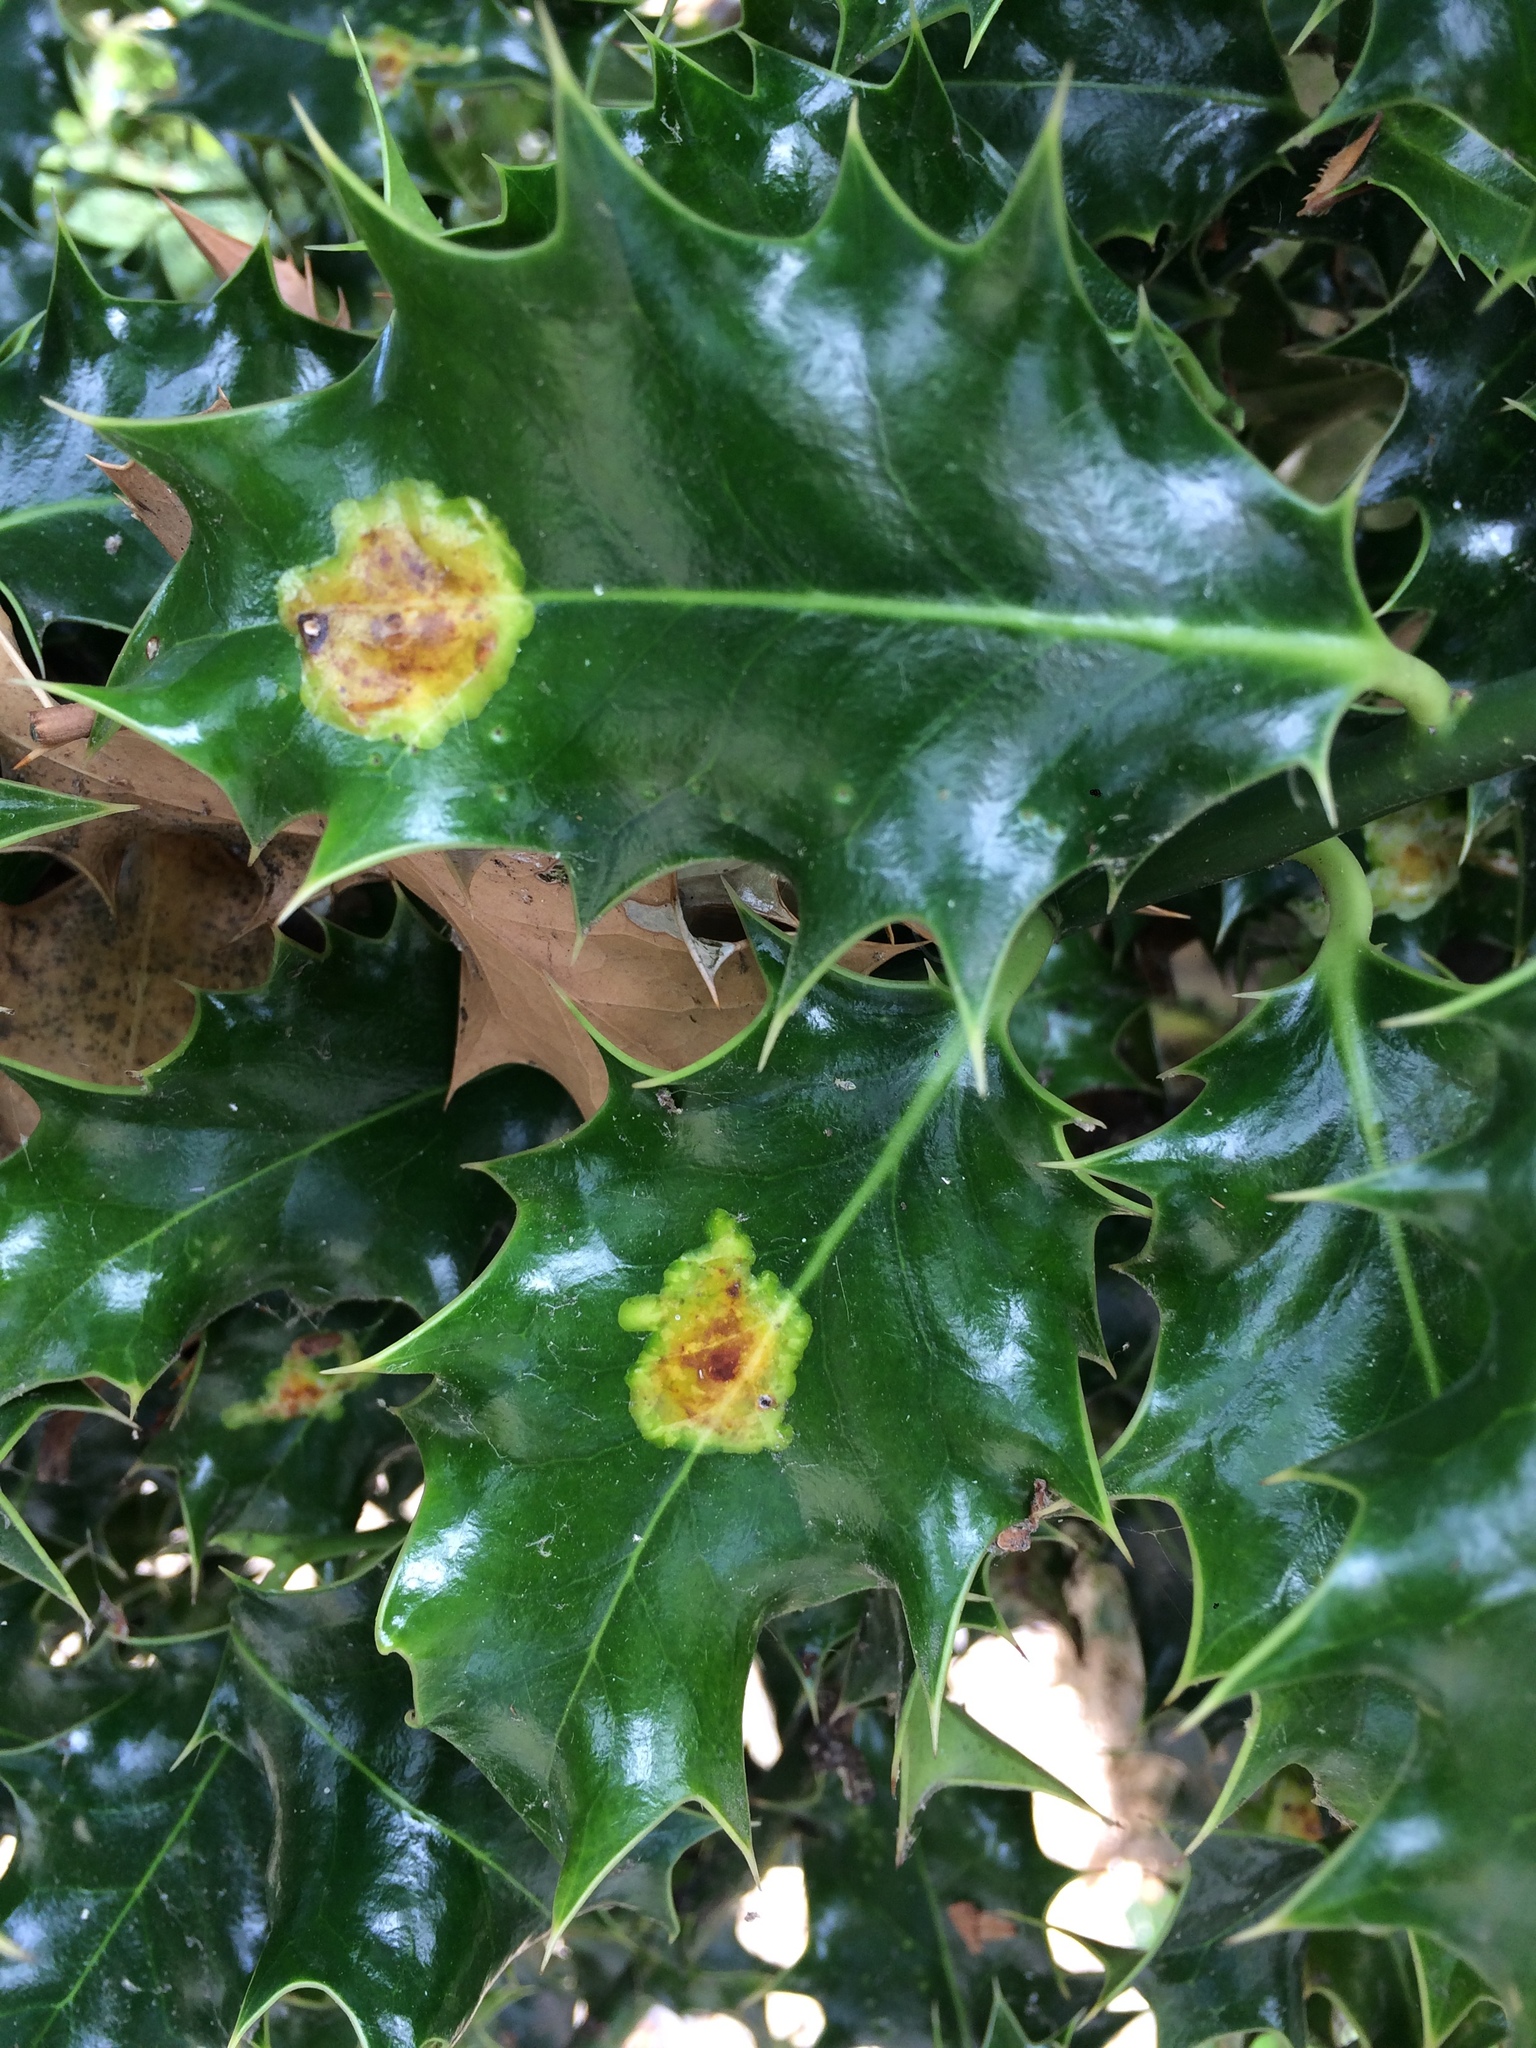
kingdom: Animalia
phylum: Arthropoda
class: Insecta
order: Diptera
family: Agromyzidae
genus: Phytomyza
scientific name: Phytomyza ilicis
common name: Holly leafminer
